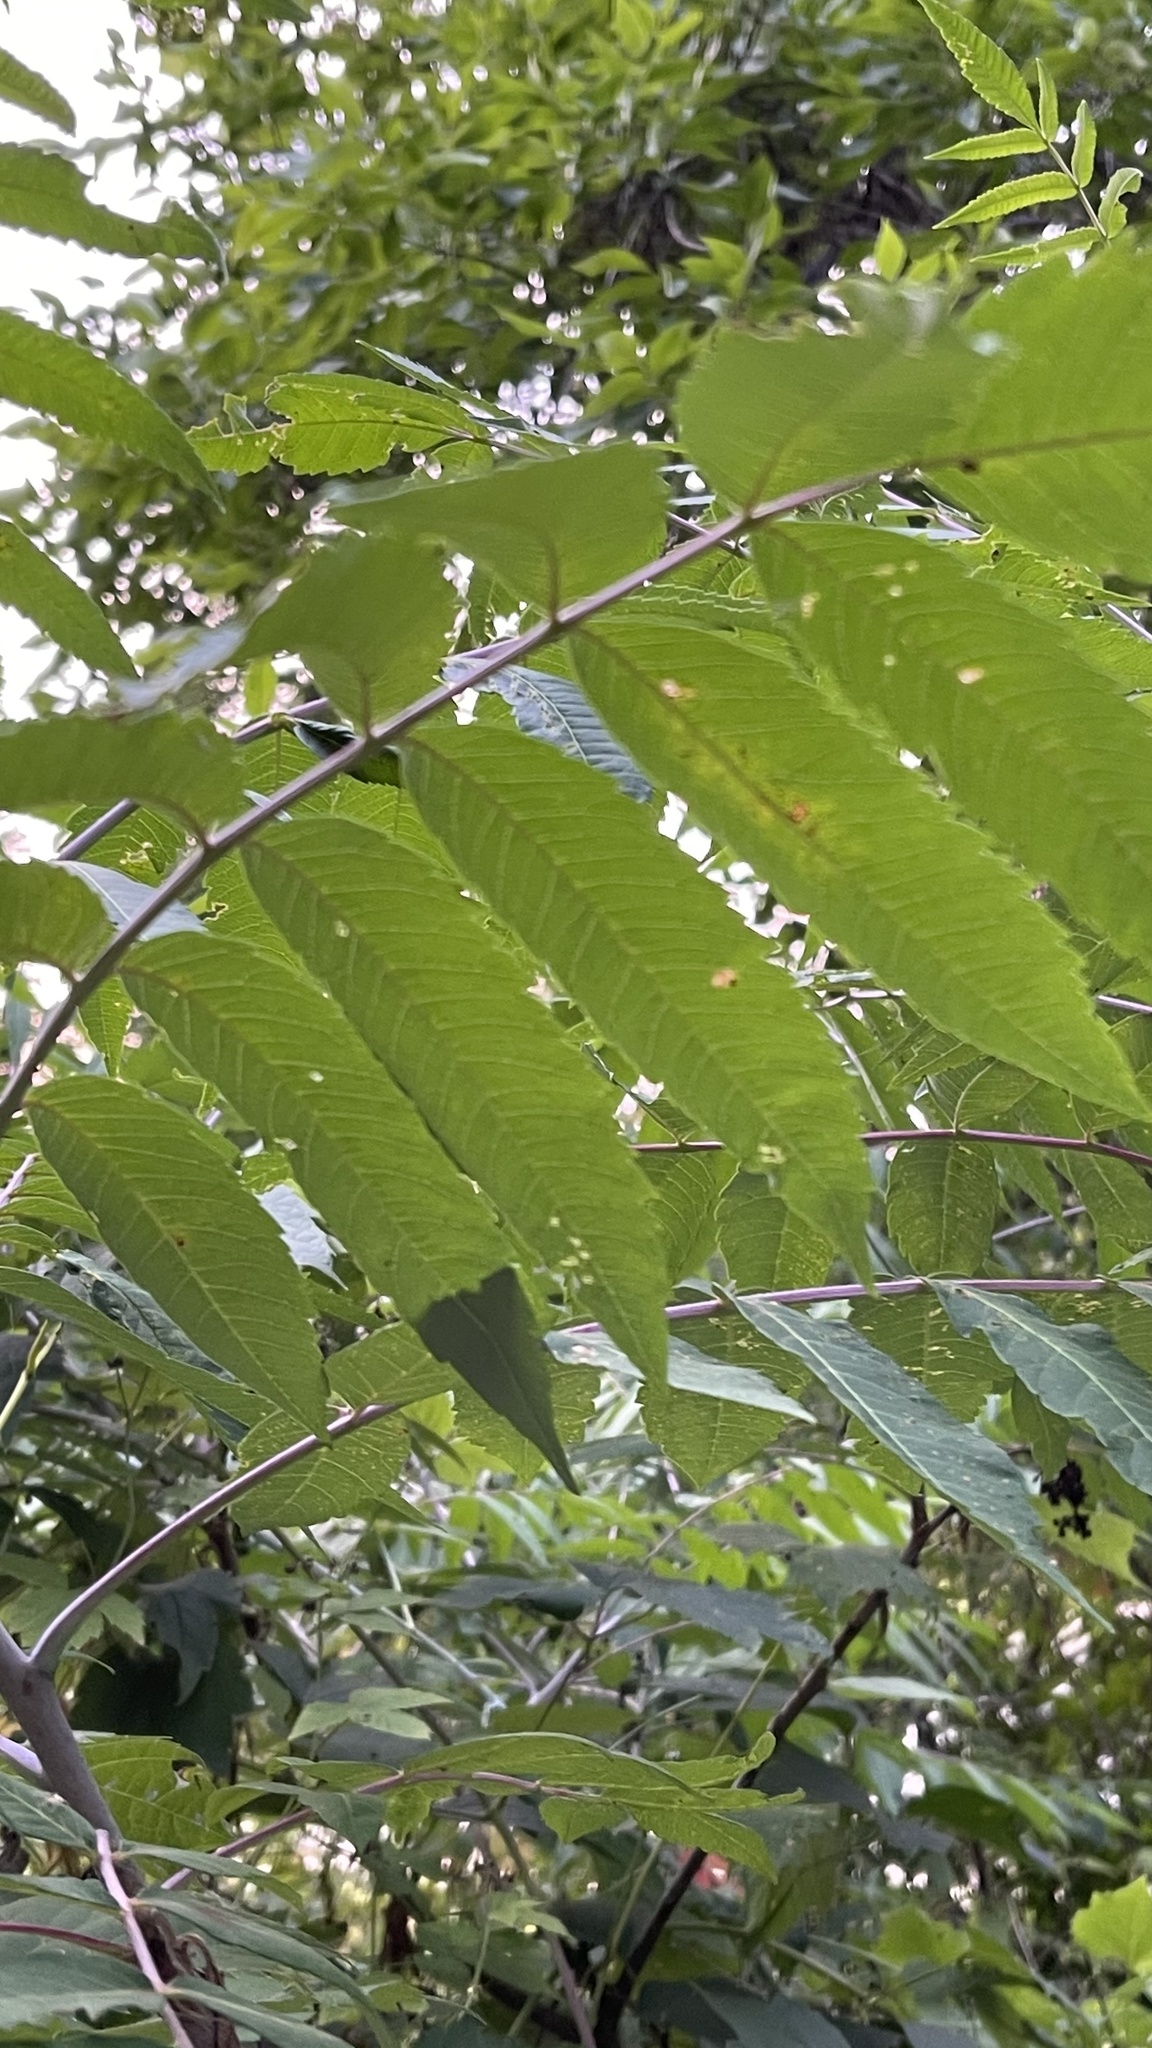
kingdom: Plantae
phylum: Tracheophyta
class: Magnoliopsida
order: Sapindales
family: Anacardiaceae
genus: Rhus
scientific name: Rhus glabra
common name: Scarlet sumac
